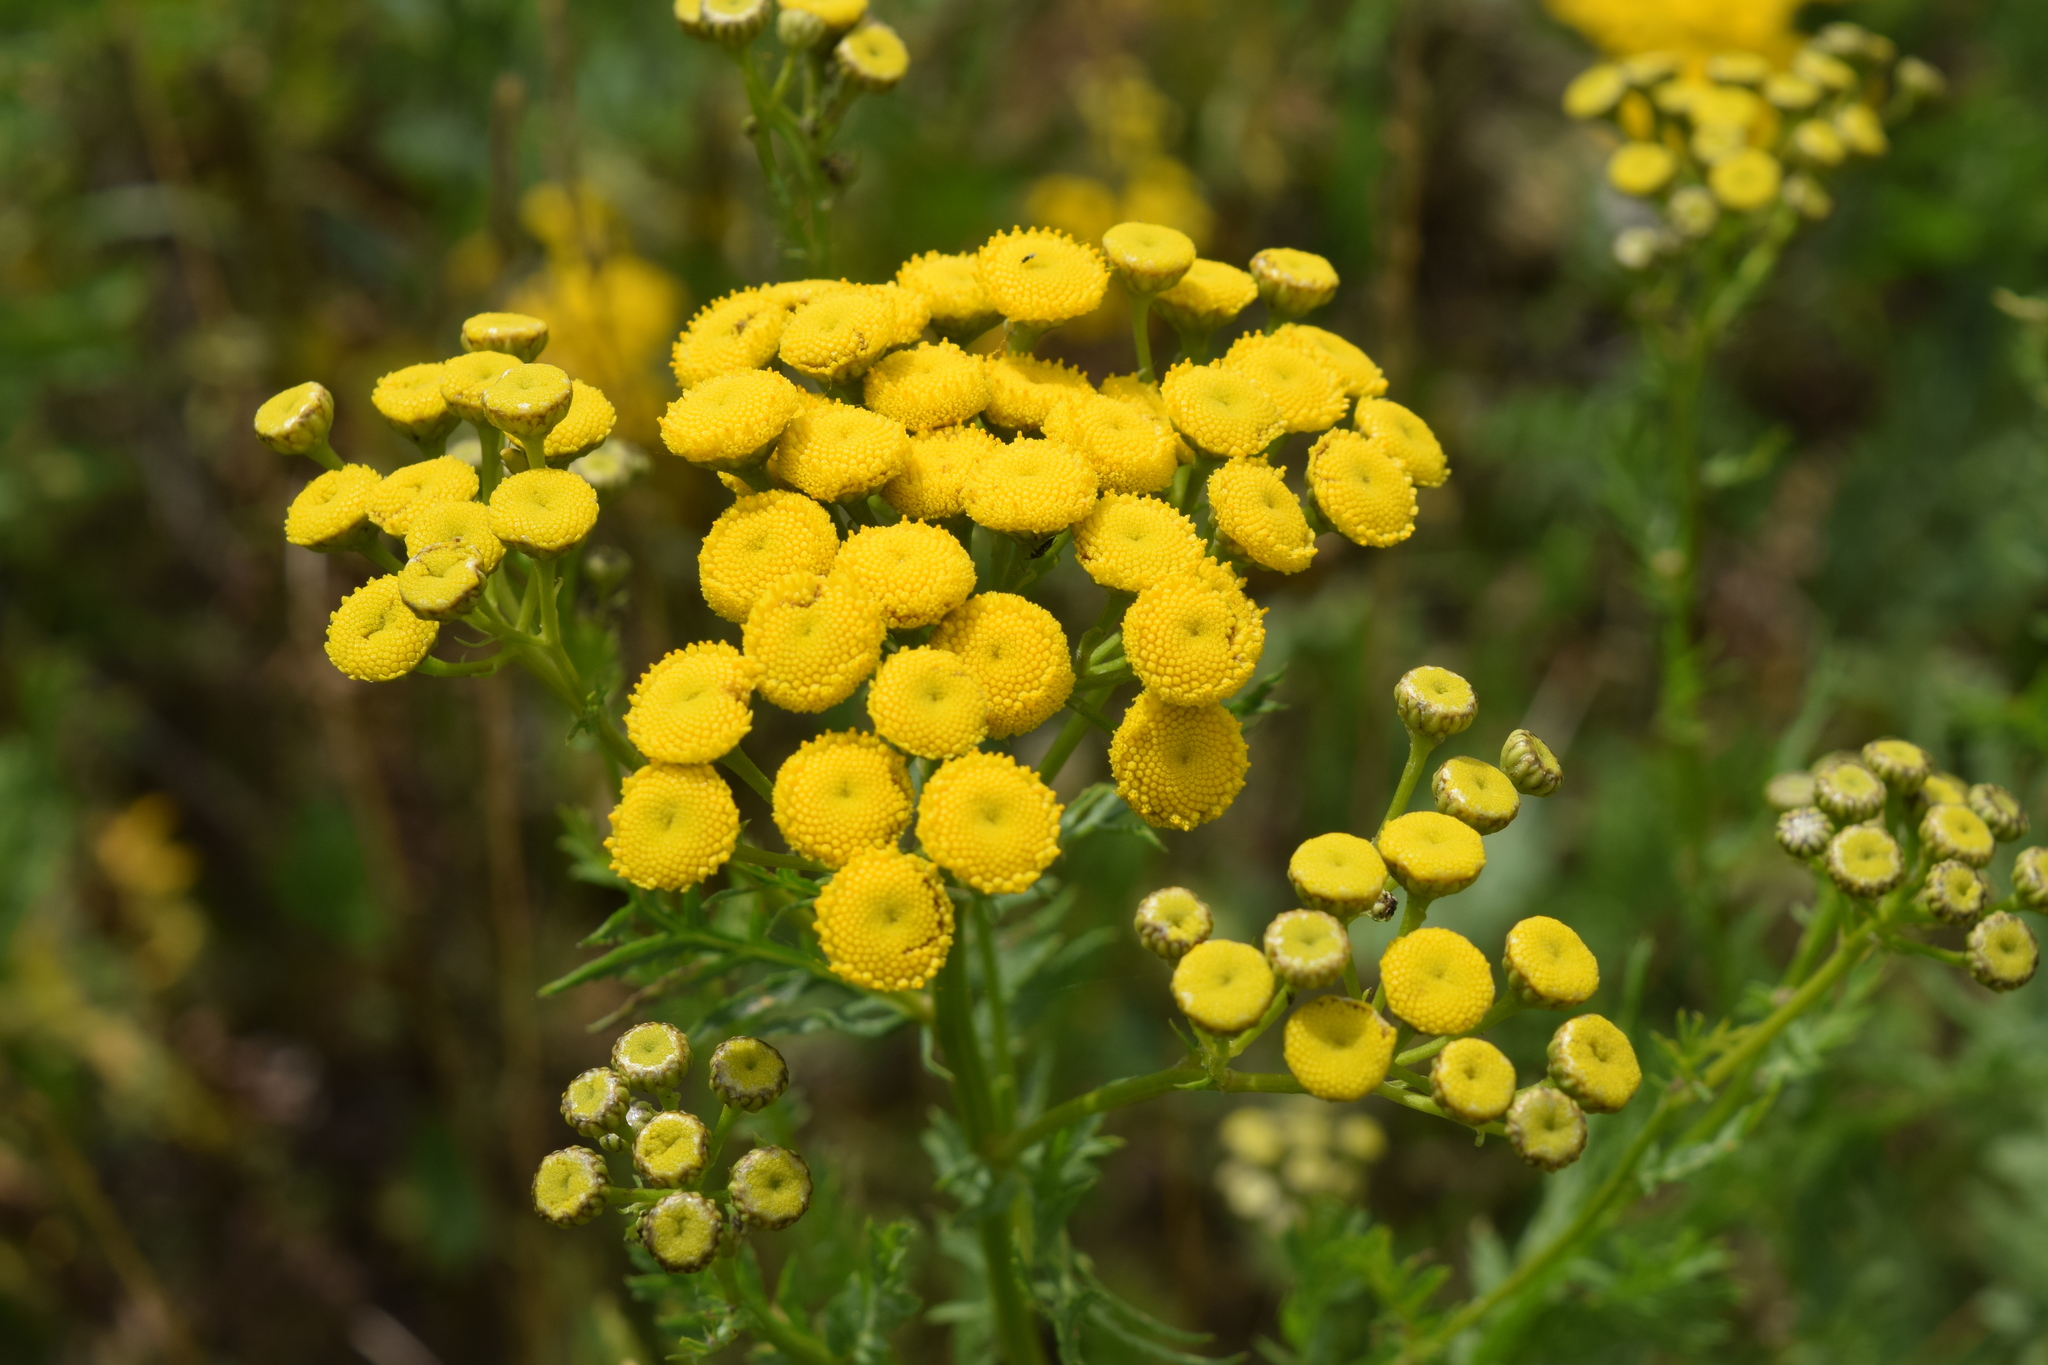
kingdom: Plantae
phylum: Tracheophyta
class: Magnoliopsida
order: Asterales
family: Asteraceae
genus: Tanacetum
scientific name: Tanacetum vulgare
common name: Common tansy
